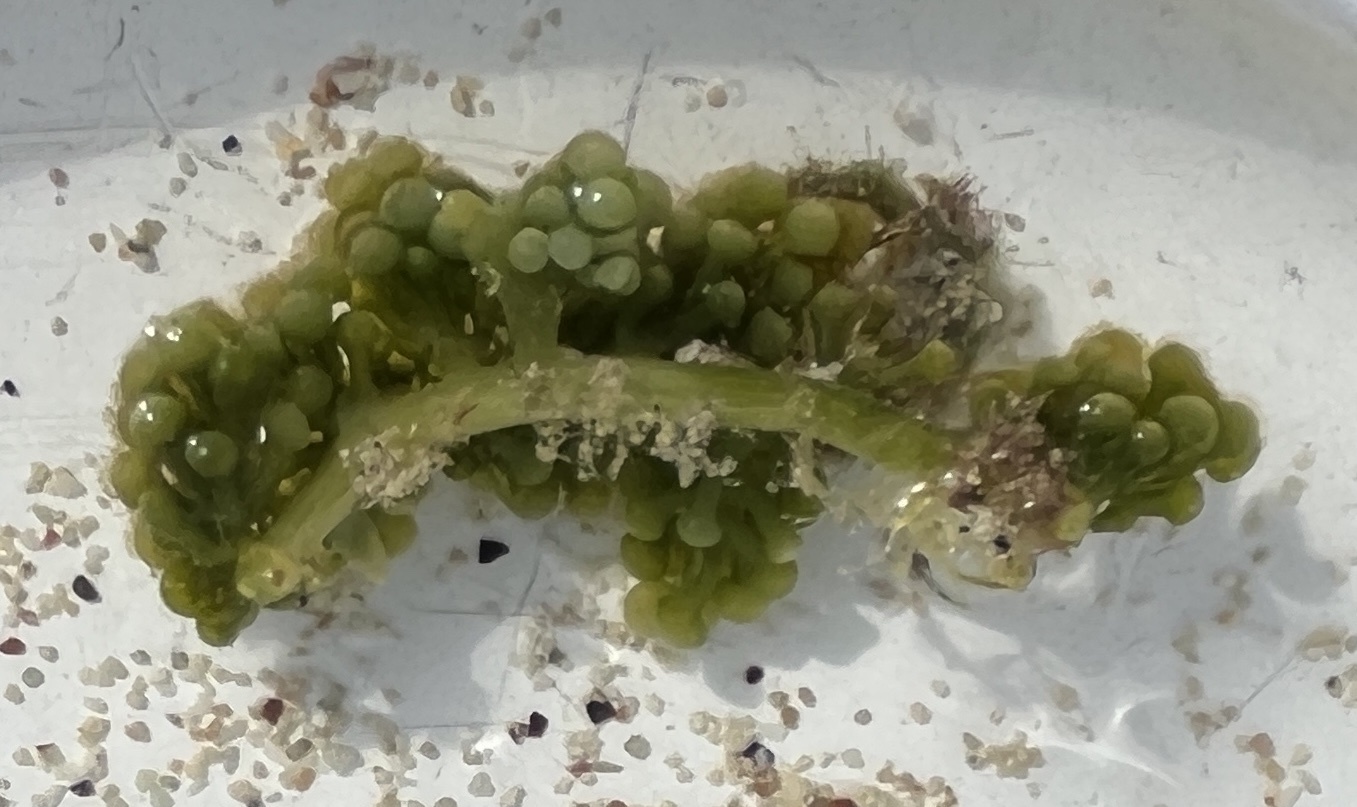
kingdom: Plantae
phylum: Chlorophyta
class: Ulvophyceae
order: Bryopsidales
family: Caulerpaceae
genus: Caulerpa
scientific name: Caulerpa racemosa
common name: Green grape algae
